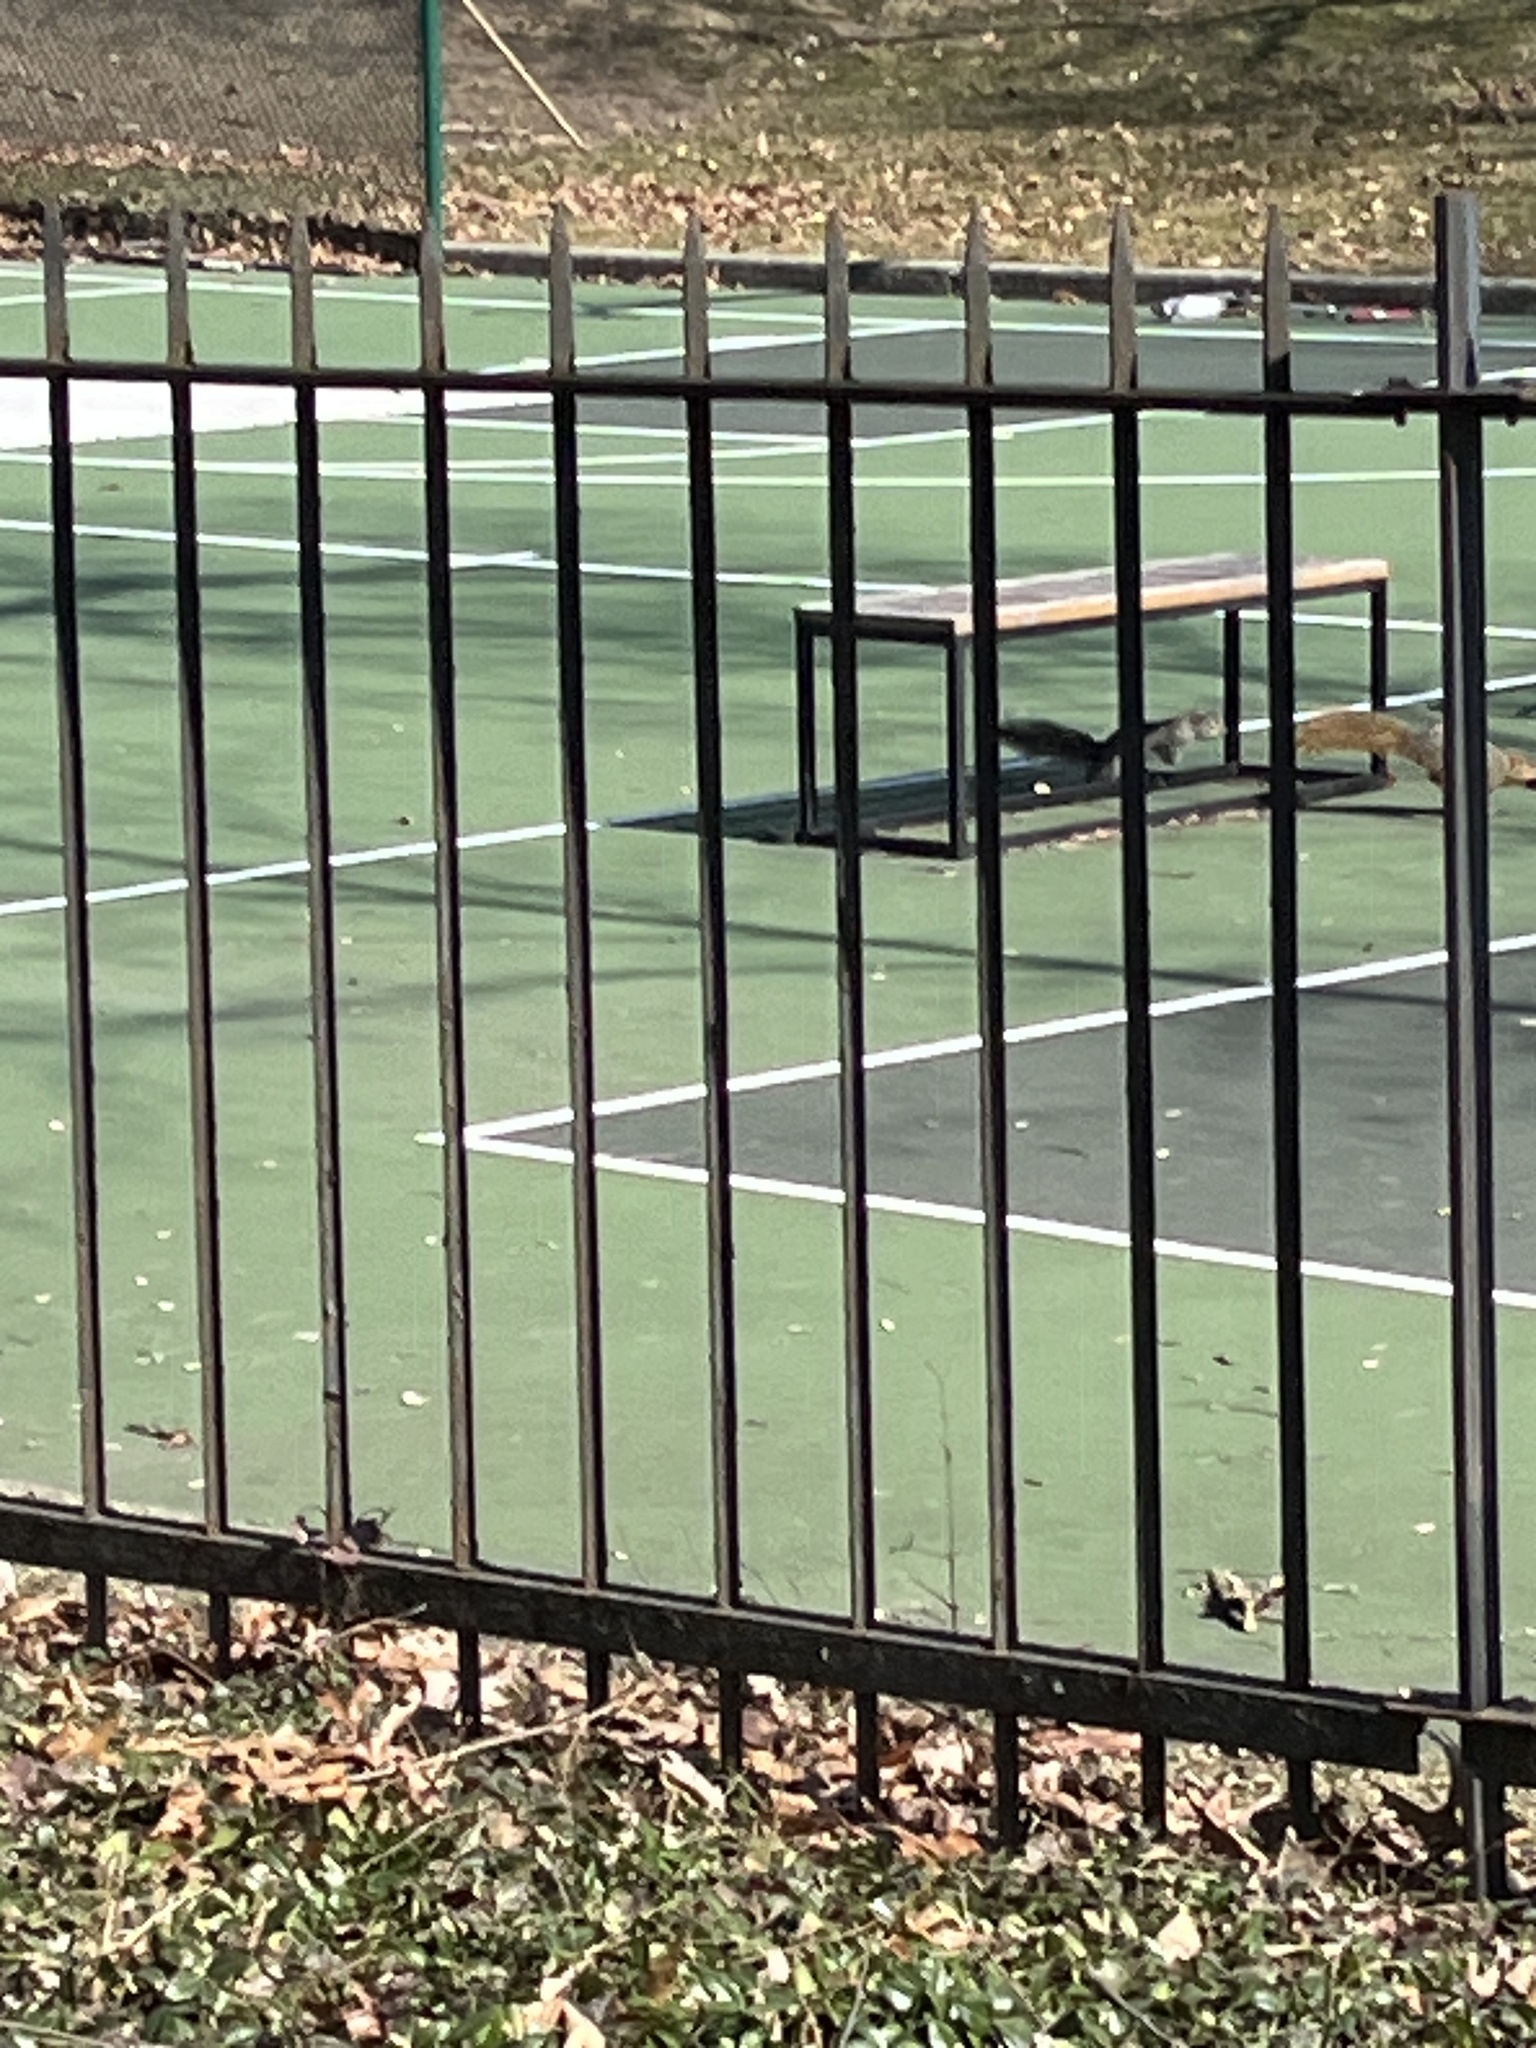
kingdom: Animalia
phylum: Chordata
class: Mammalia
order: Rodentia
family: Sciuridae
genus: Sciurus
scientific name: Sciurus niger
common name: Fox squirrel
